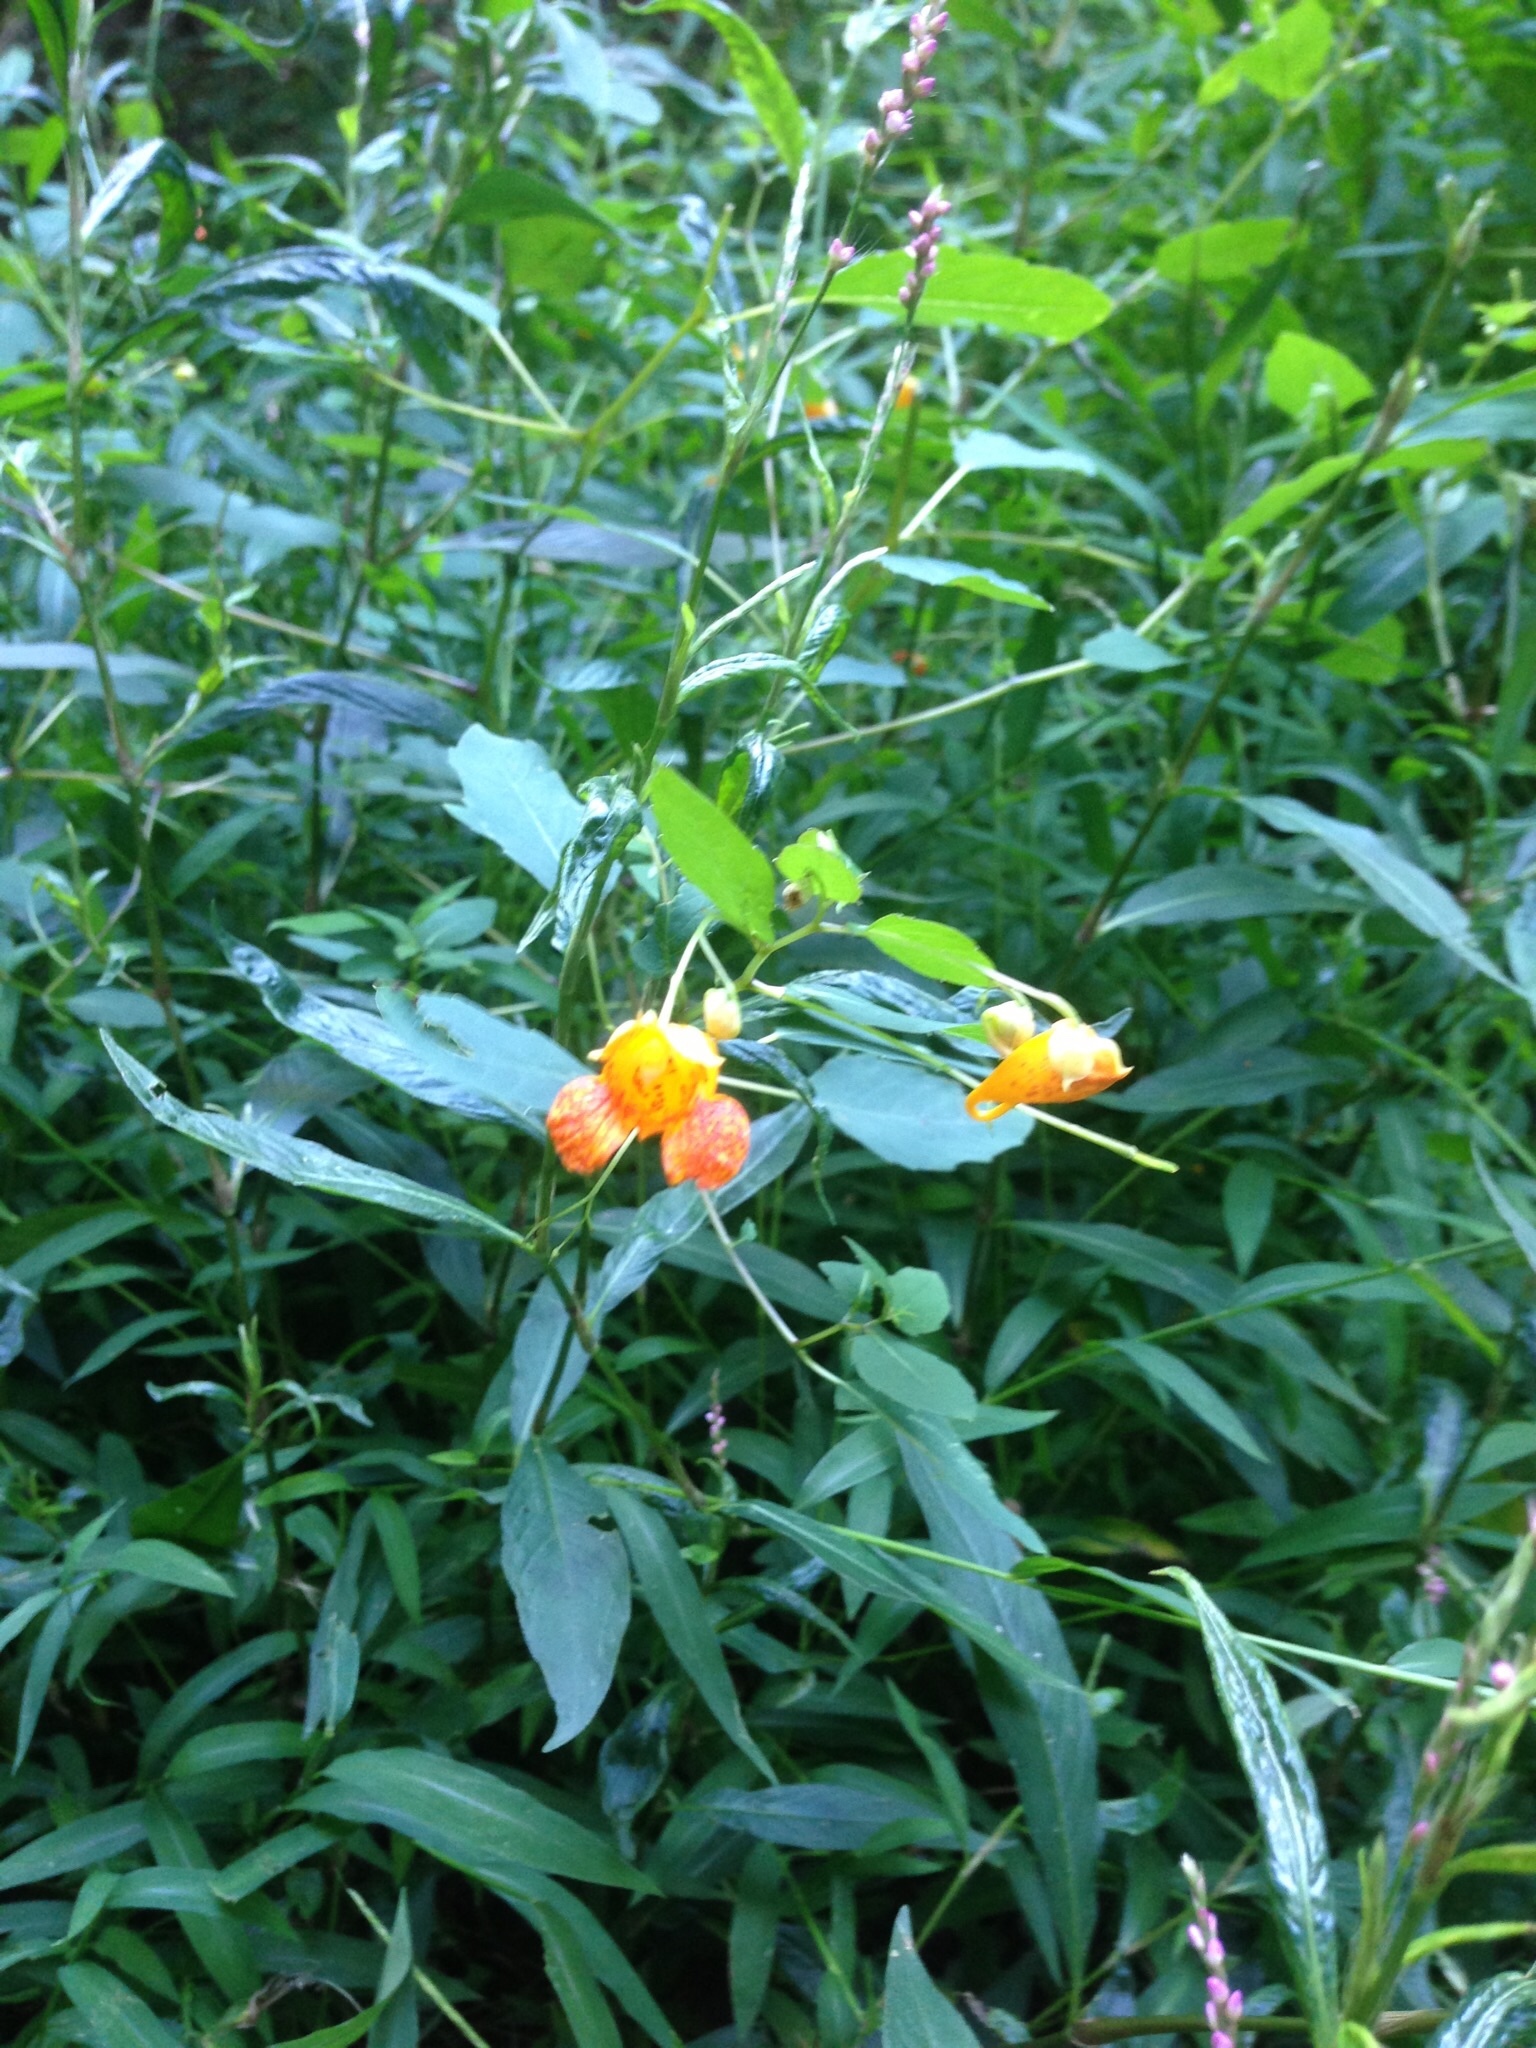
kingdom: Plantae
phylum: Tracheophyta
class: Magnoliopsida
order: Ericales
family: Balsaminaceae
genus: Impatiens
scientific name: Impatiens capensis
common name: Orange balsam
